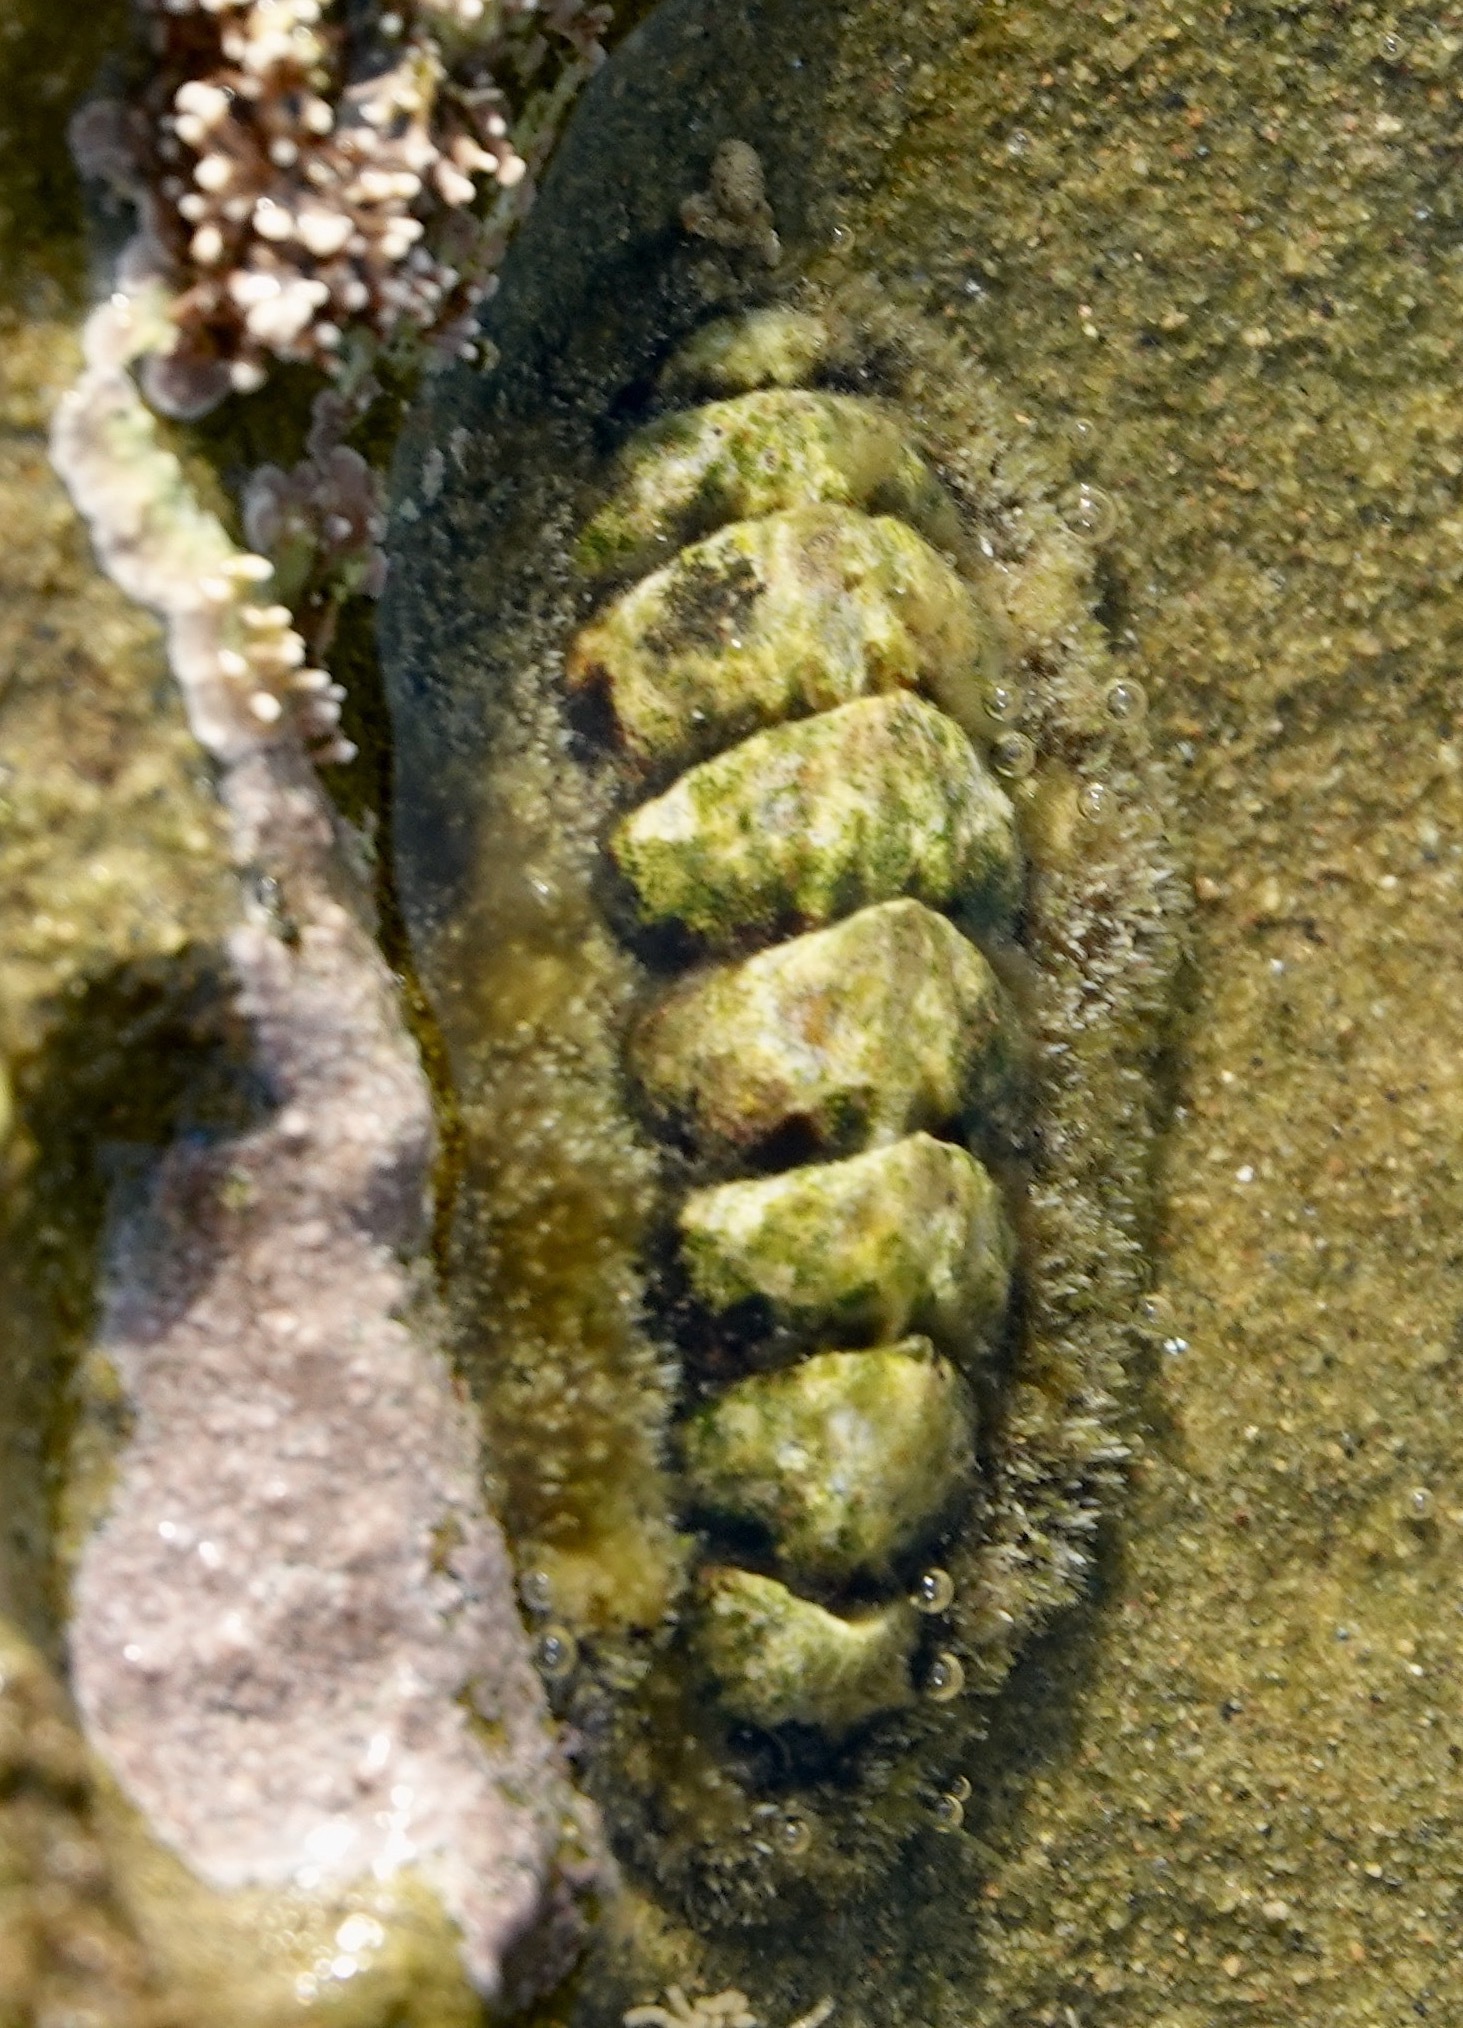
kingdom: Animalia
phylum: Mollusca
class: Polyplacophora
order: Chitonida
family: Tonicellidae
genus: Nuttallina
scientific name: Nuttallina californica
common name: California nuttall chiton
